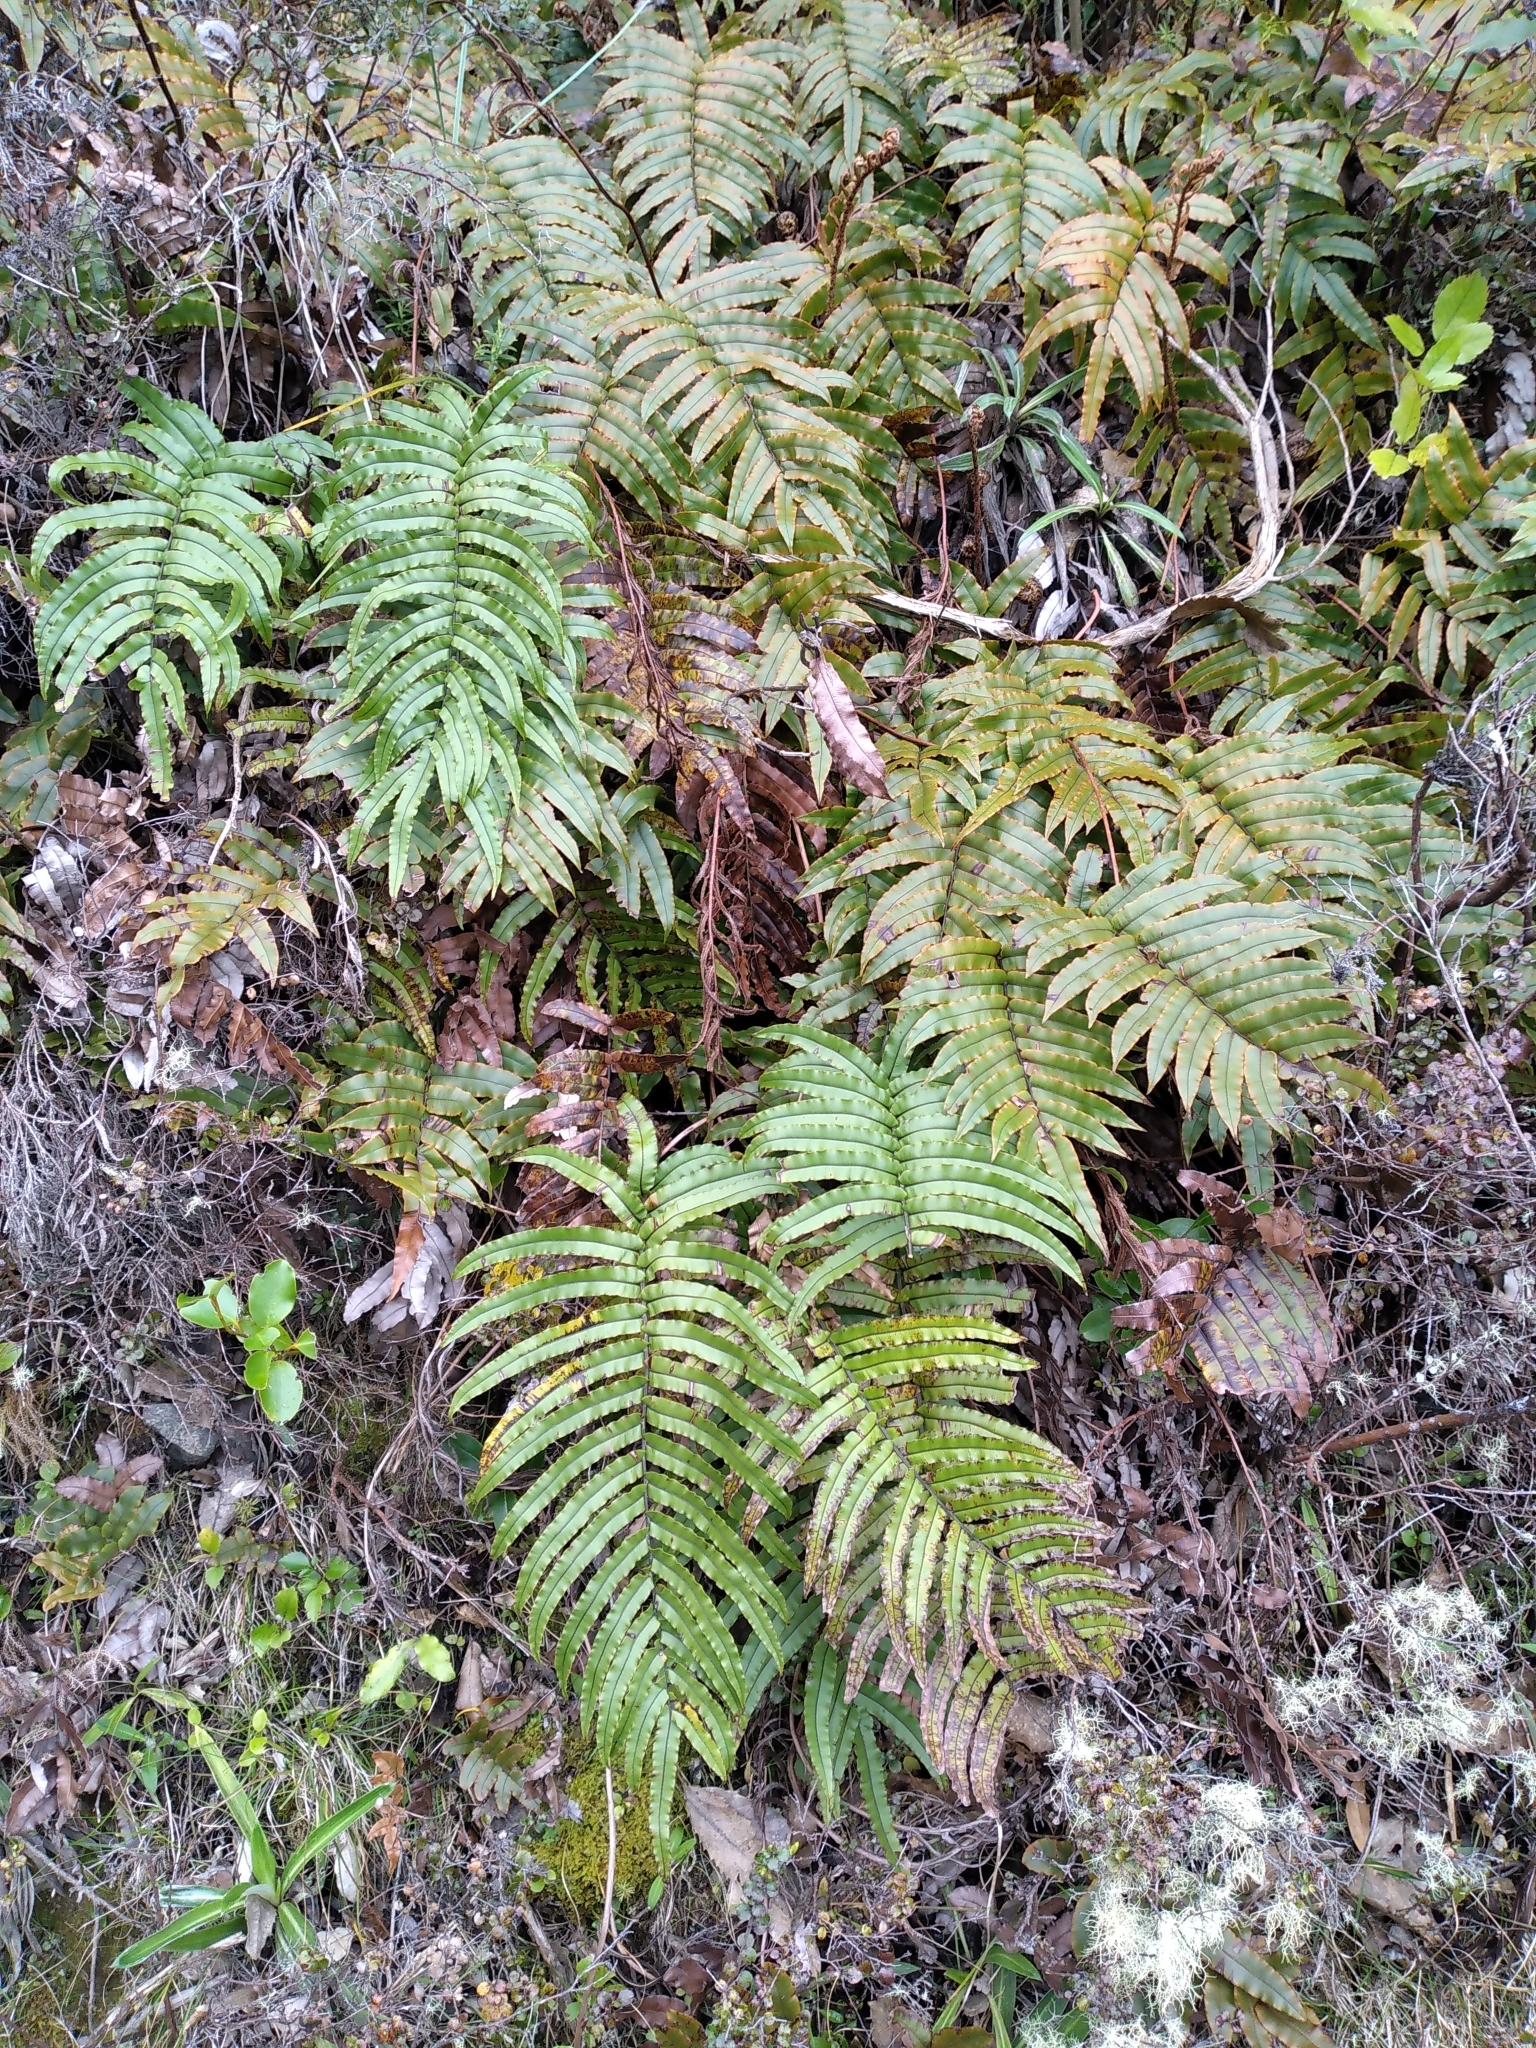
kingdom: Plantae
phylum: Tracheophyta
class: Polypodiopsida
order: Polypodiales
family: Blechnaceae
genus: Parablechnum
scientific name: Parablechnum montanum
